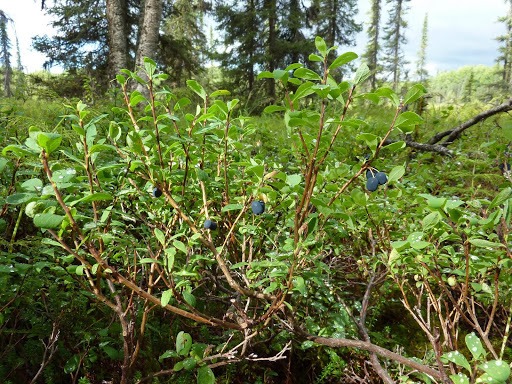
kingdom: Plantae
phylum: Tracheophyta
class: Magnoliopsida
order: Ericales
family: Ericaceae
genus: Vaccinium
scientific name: Vaccinium uliginosum
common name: Bog bilberry
